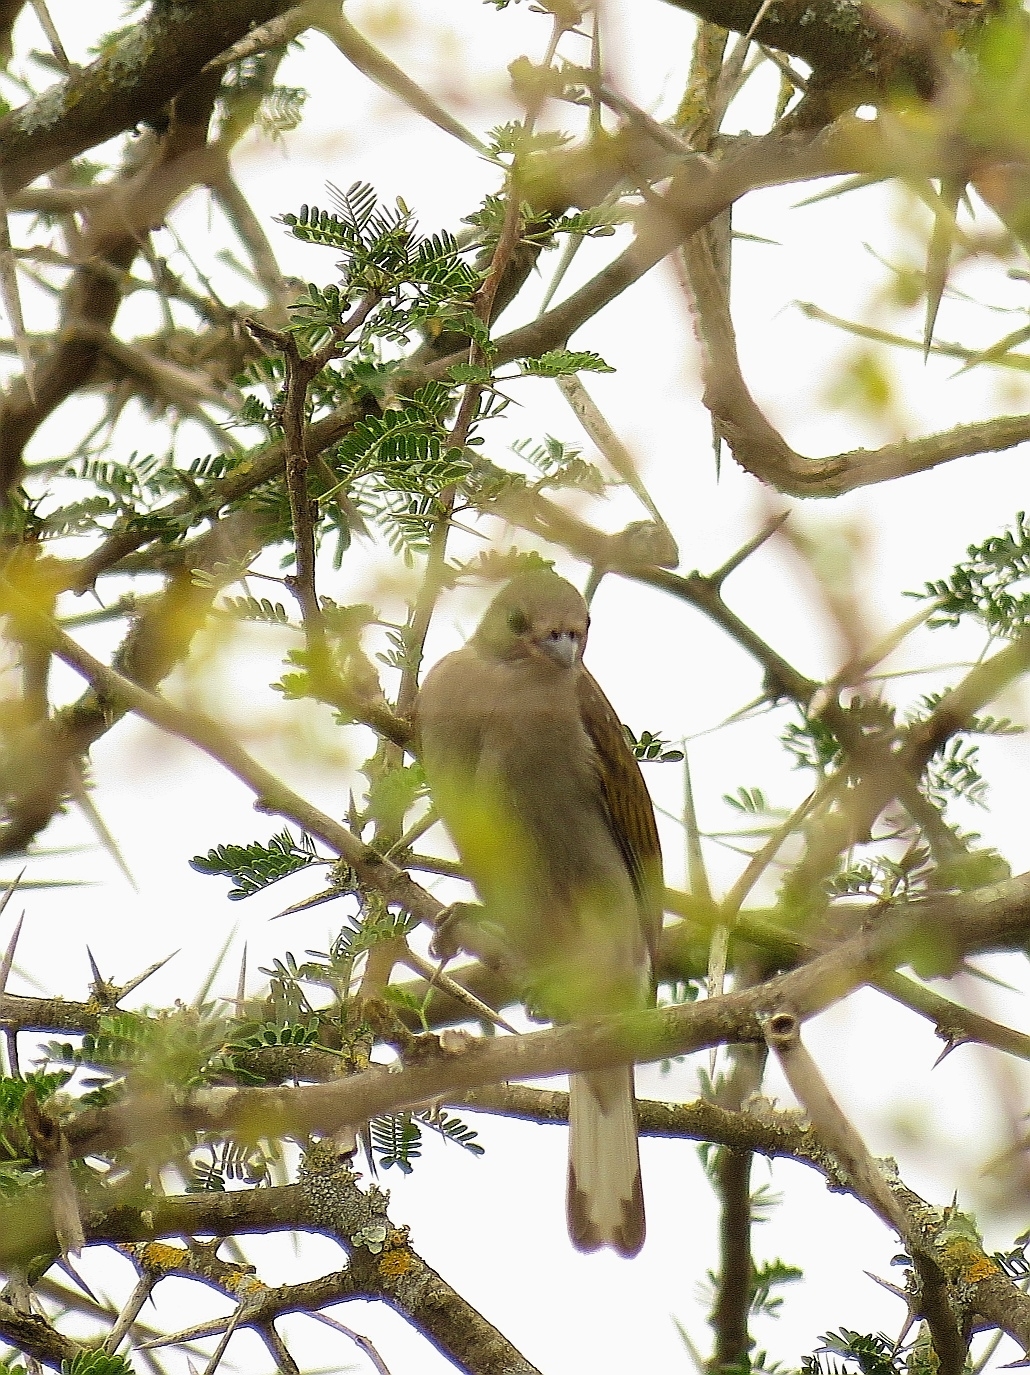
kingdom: Animalia
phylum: Chordata
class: Aves
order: Piciformes
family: Indicatoridae
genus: Indicator
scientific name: Indicator minor
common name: Lesser honeyguide
